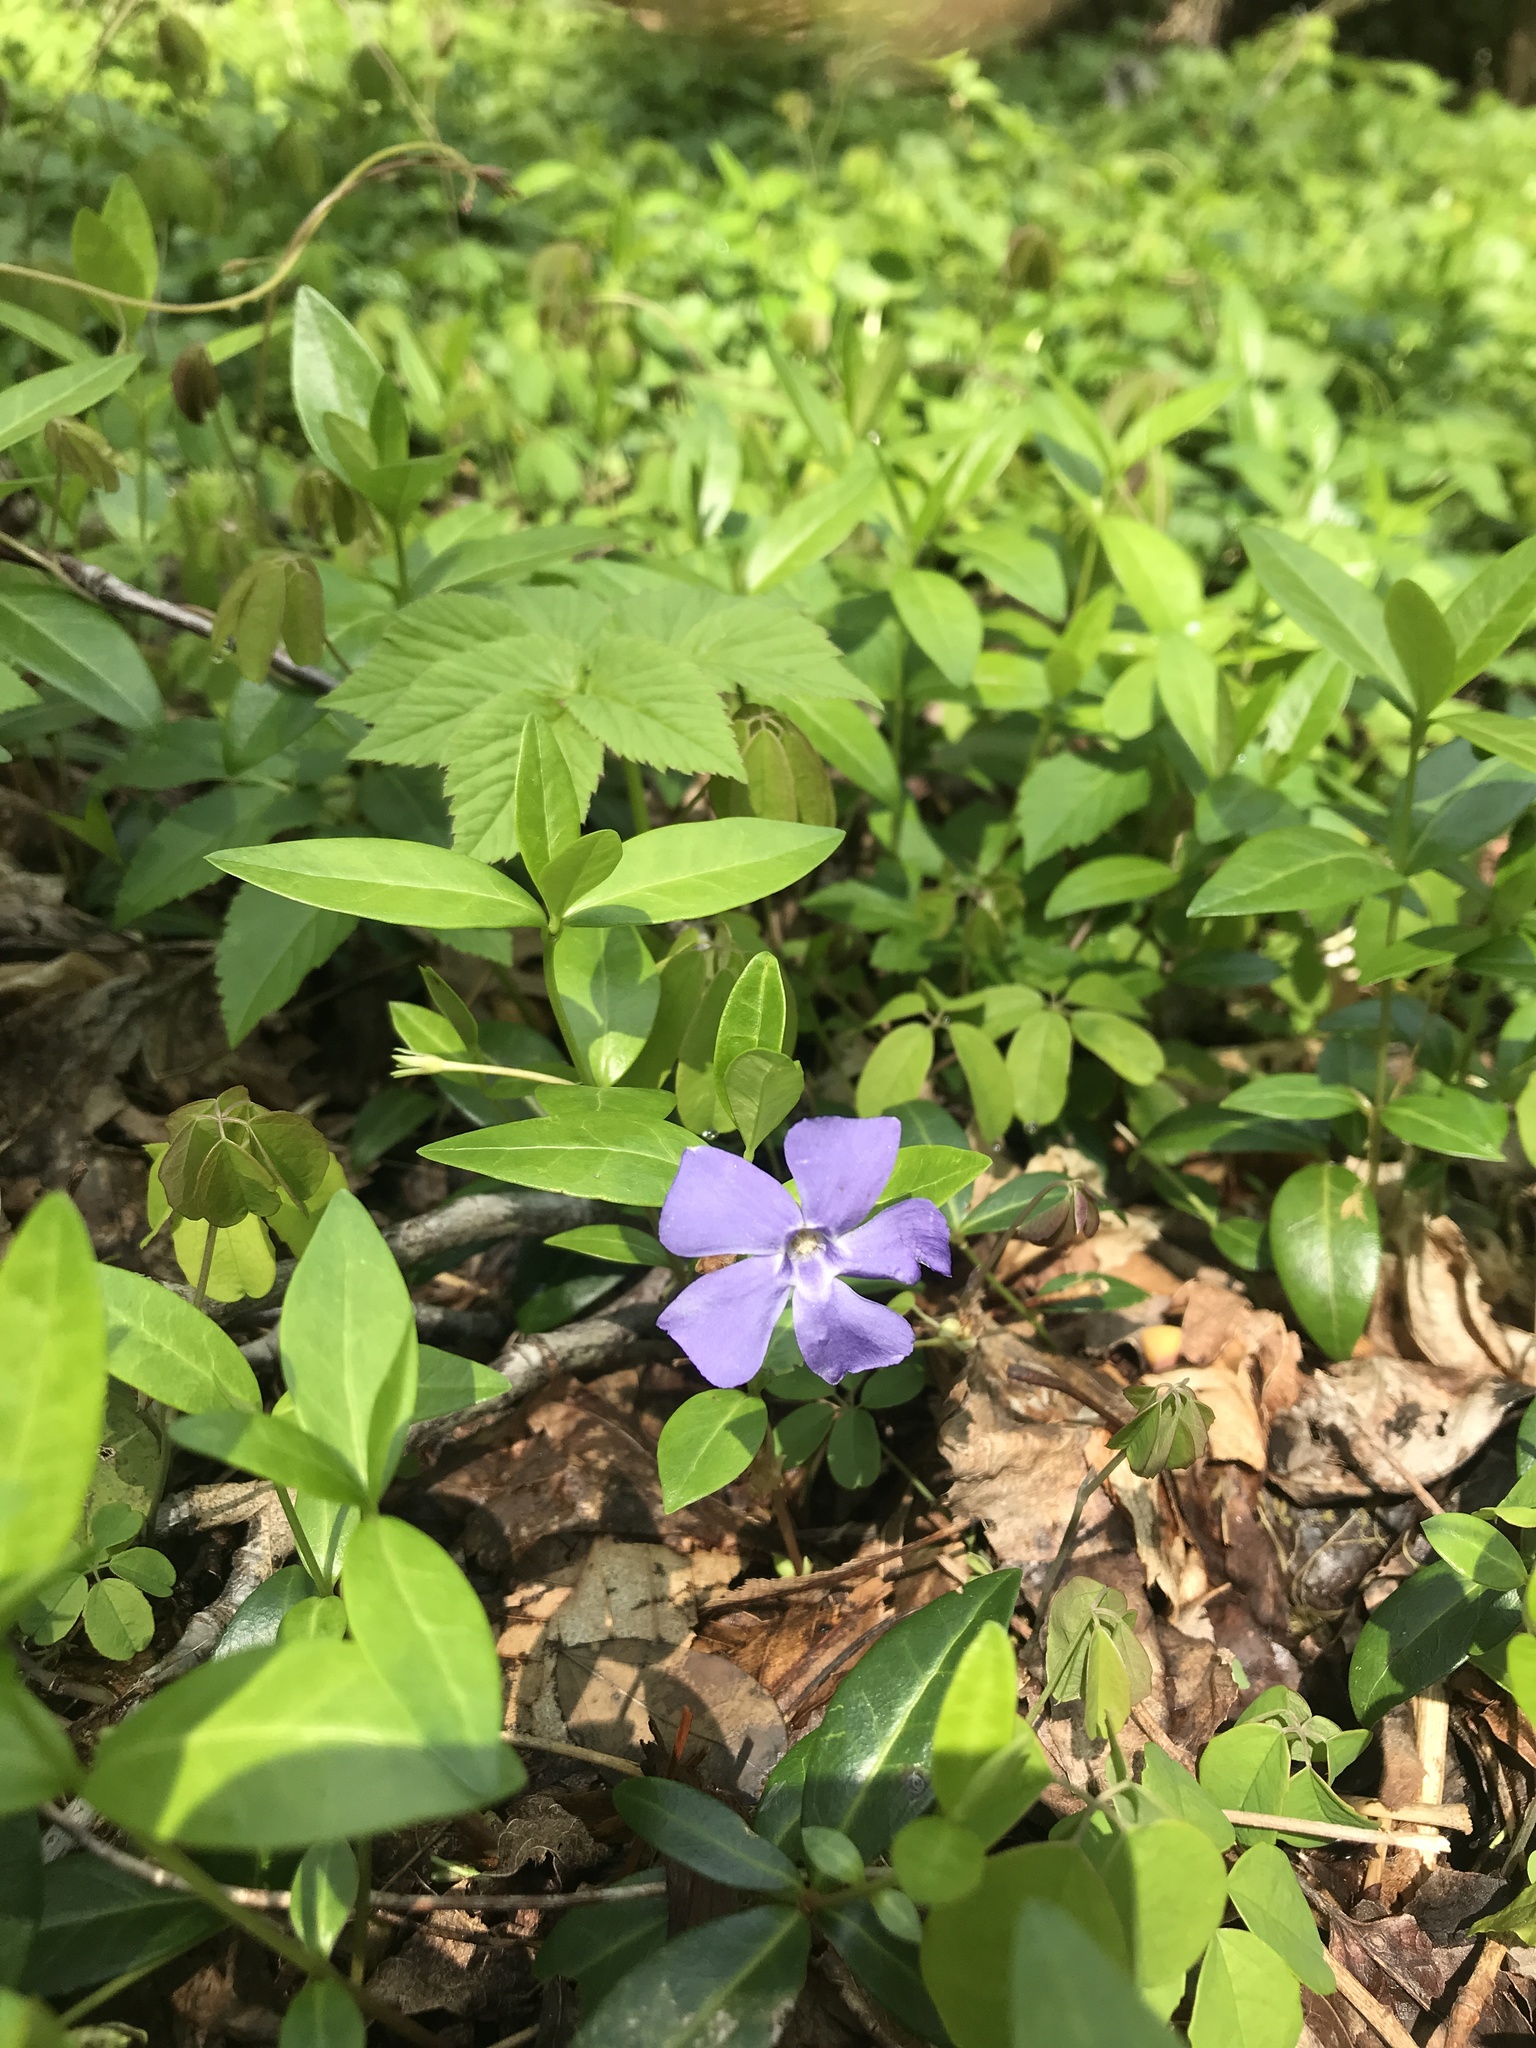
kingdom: Plantae
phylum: Tracheophyta
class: Magnoliopsida
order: Gentianales
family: Apocynaceae
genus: Vinca
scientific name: Vinca minor
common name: Lesser periwinkle
